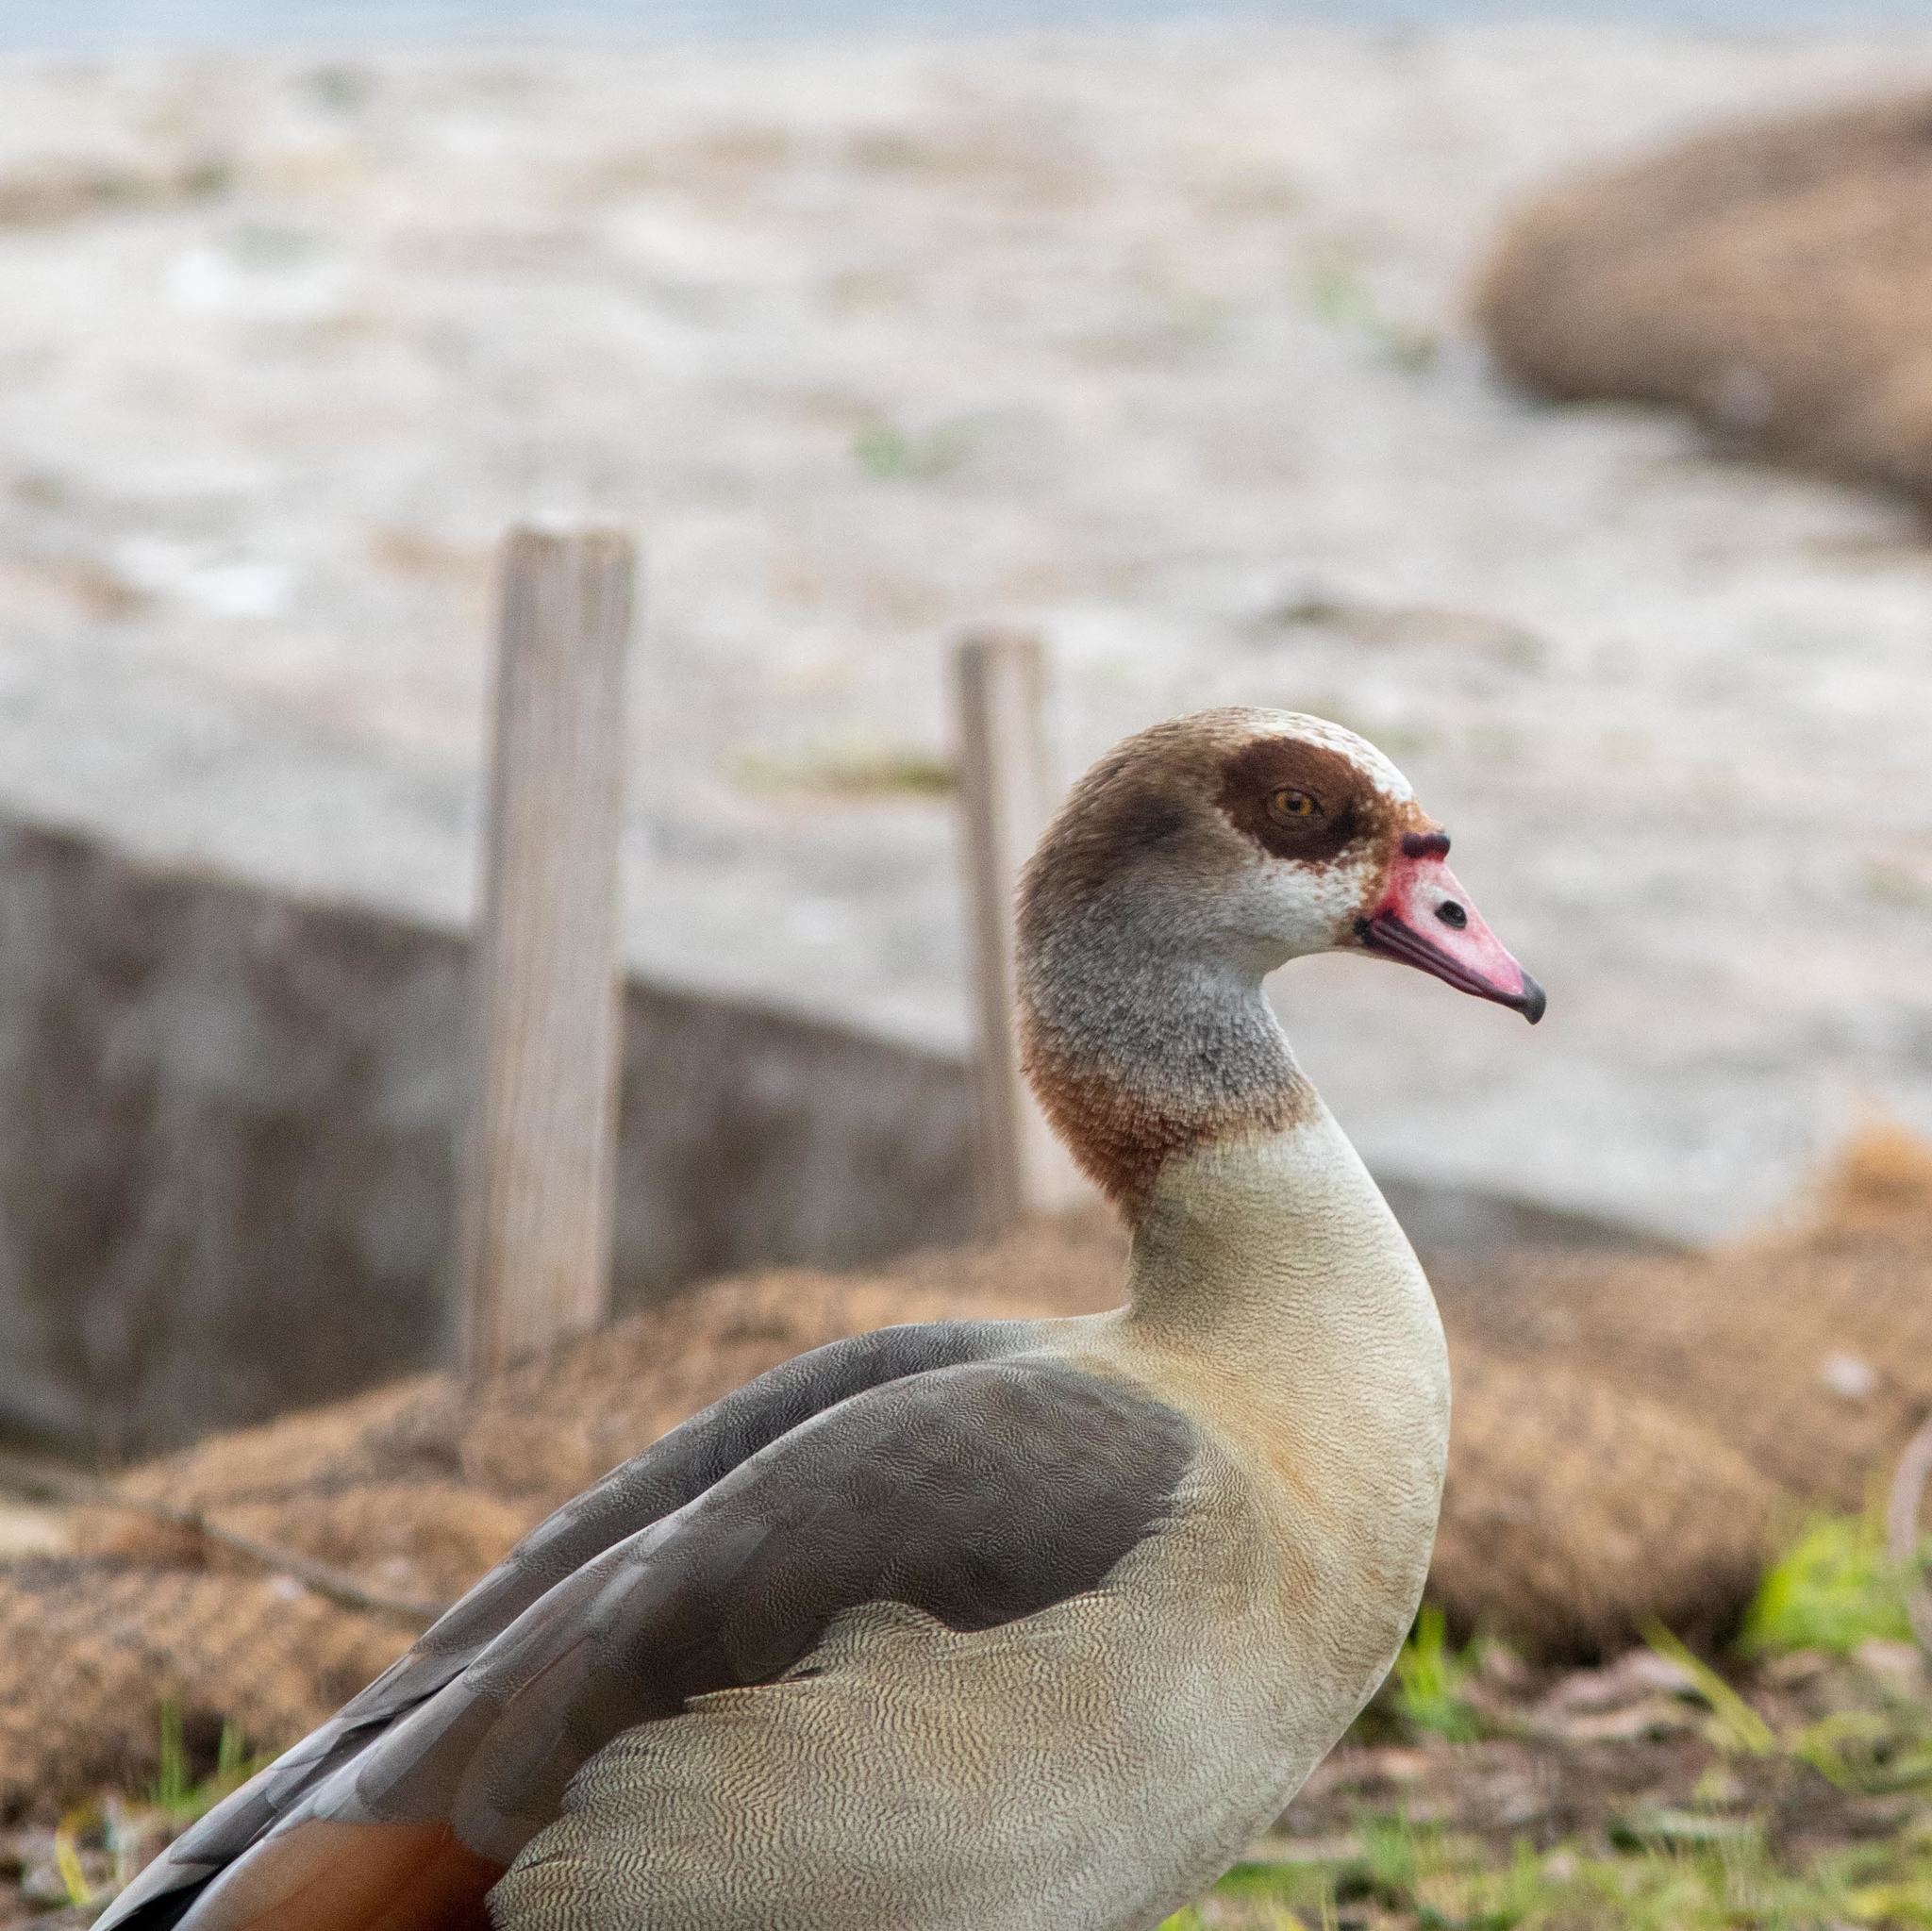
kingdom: Animalia
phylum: Chordata
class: Aves
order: Anseriformes
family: Anatidae
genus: Alopochen
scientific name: Alopochen aegyptiaca
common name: Egyptian goose
